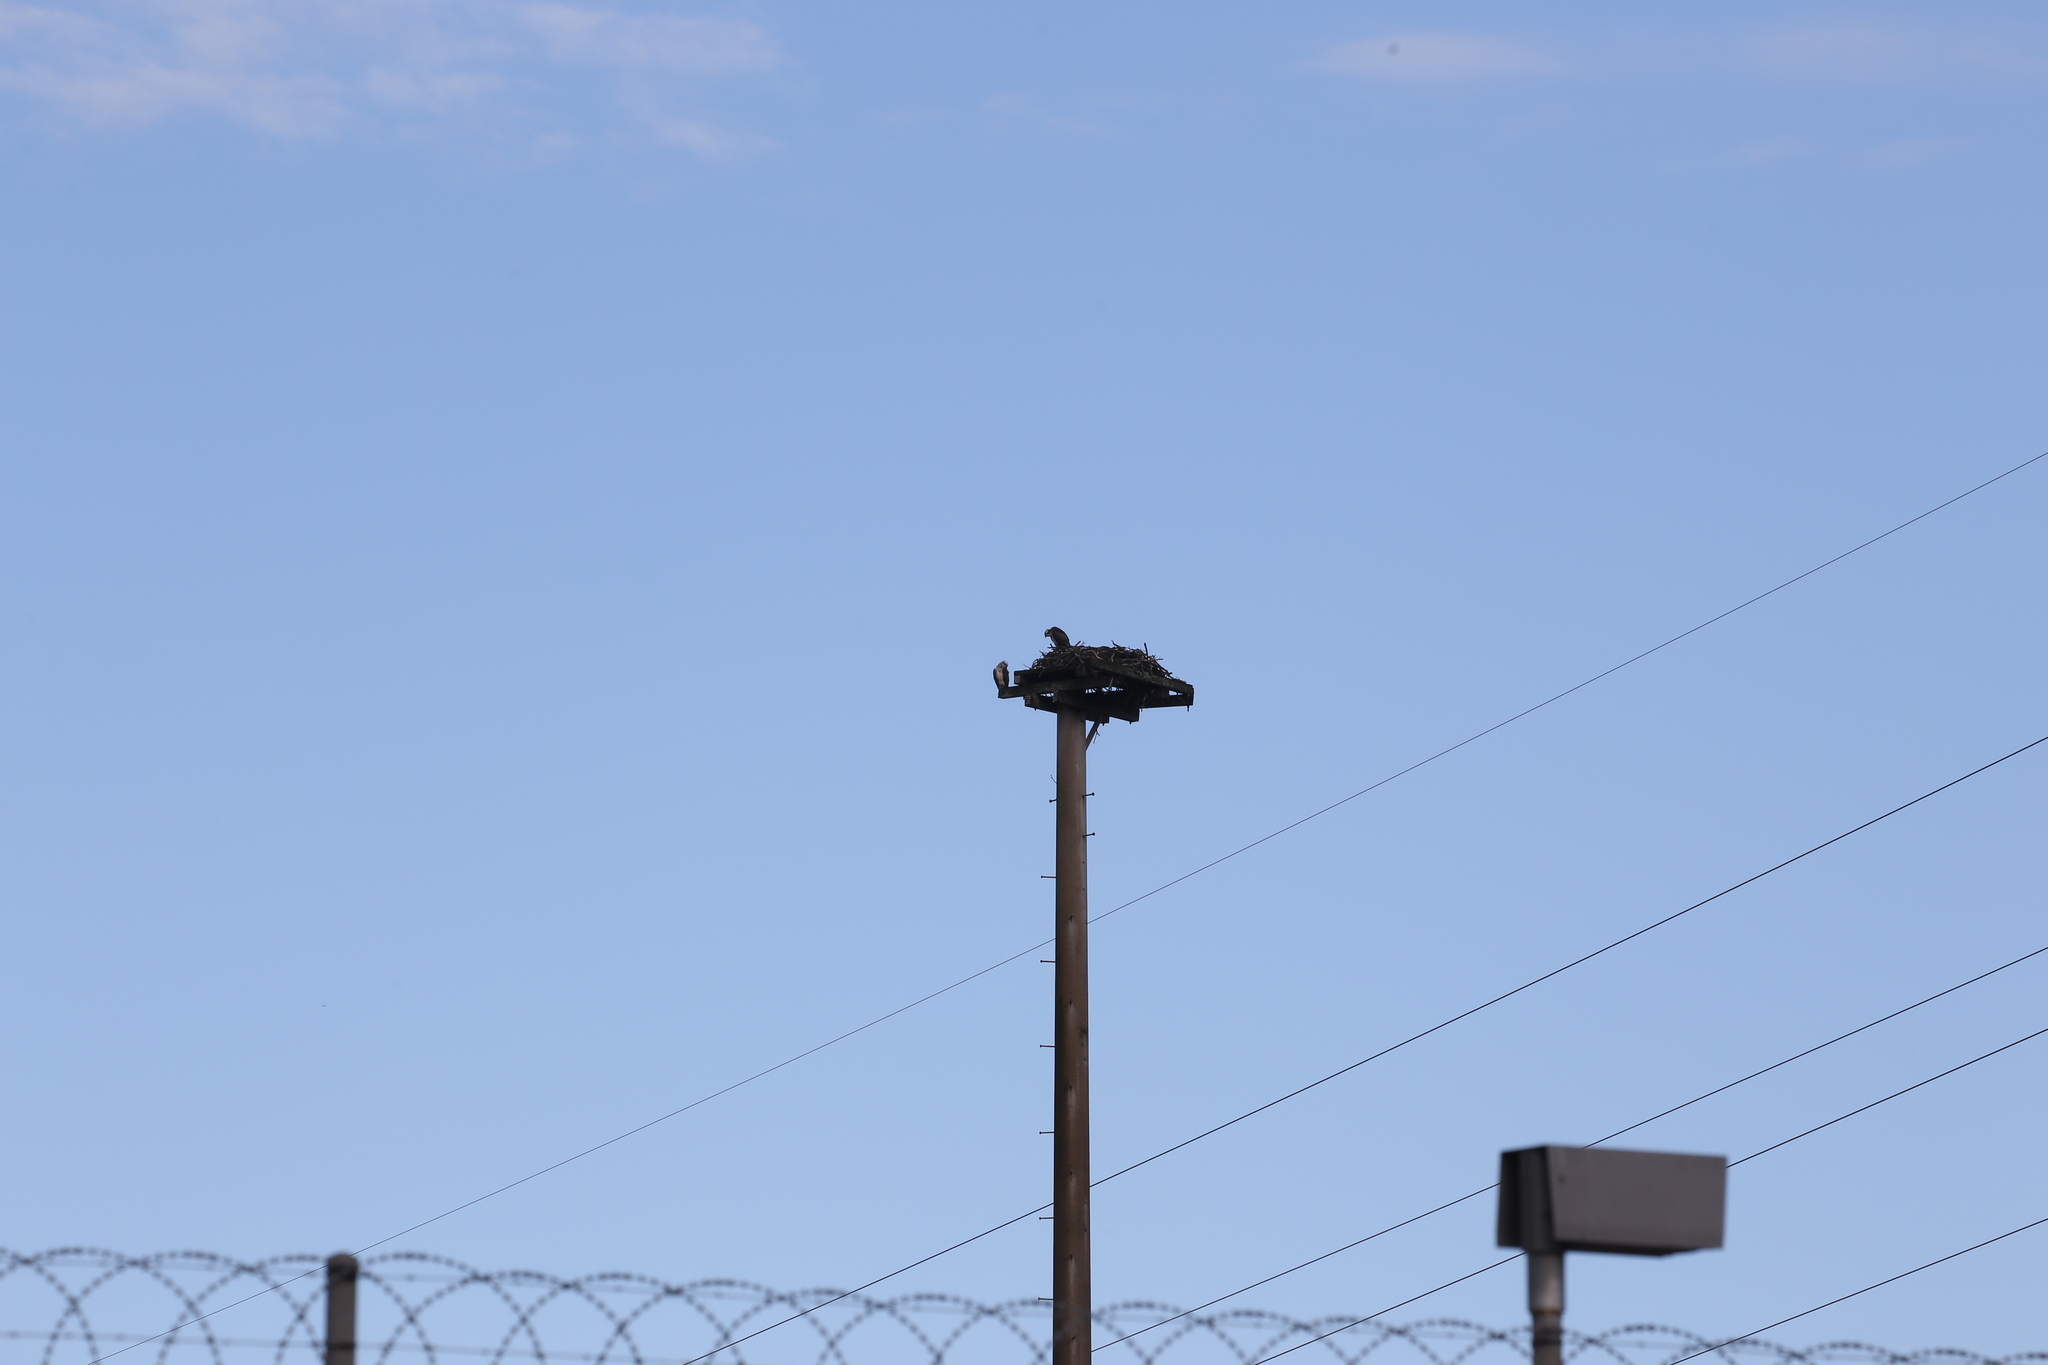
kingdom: Animalia
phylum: Chordata
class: Aves
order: Accipitriformes
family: Pandionidae
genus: Pandion
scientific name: Pandion cristatus
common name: Eastern osprey
